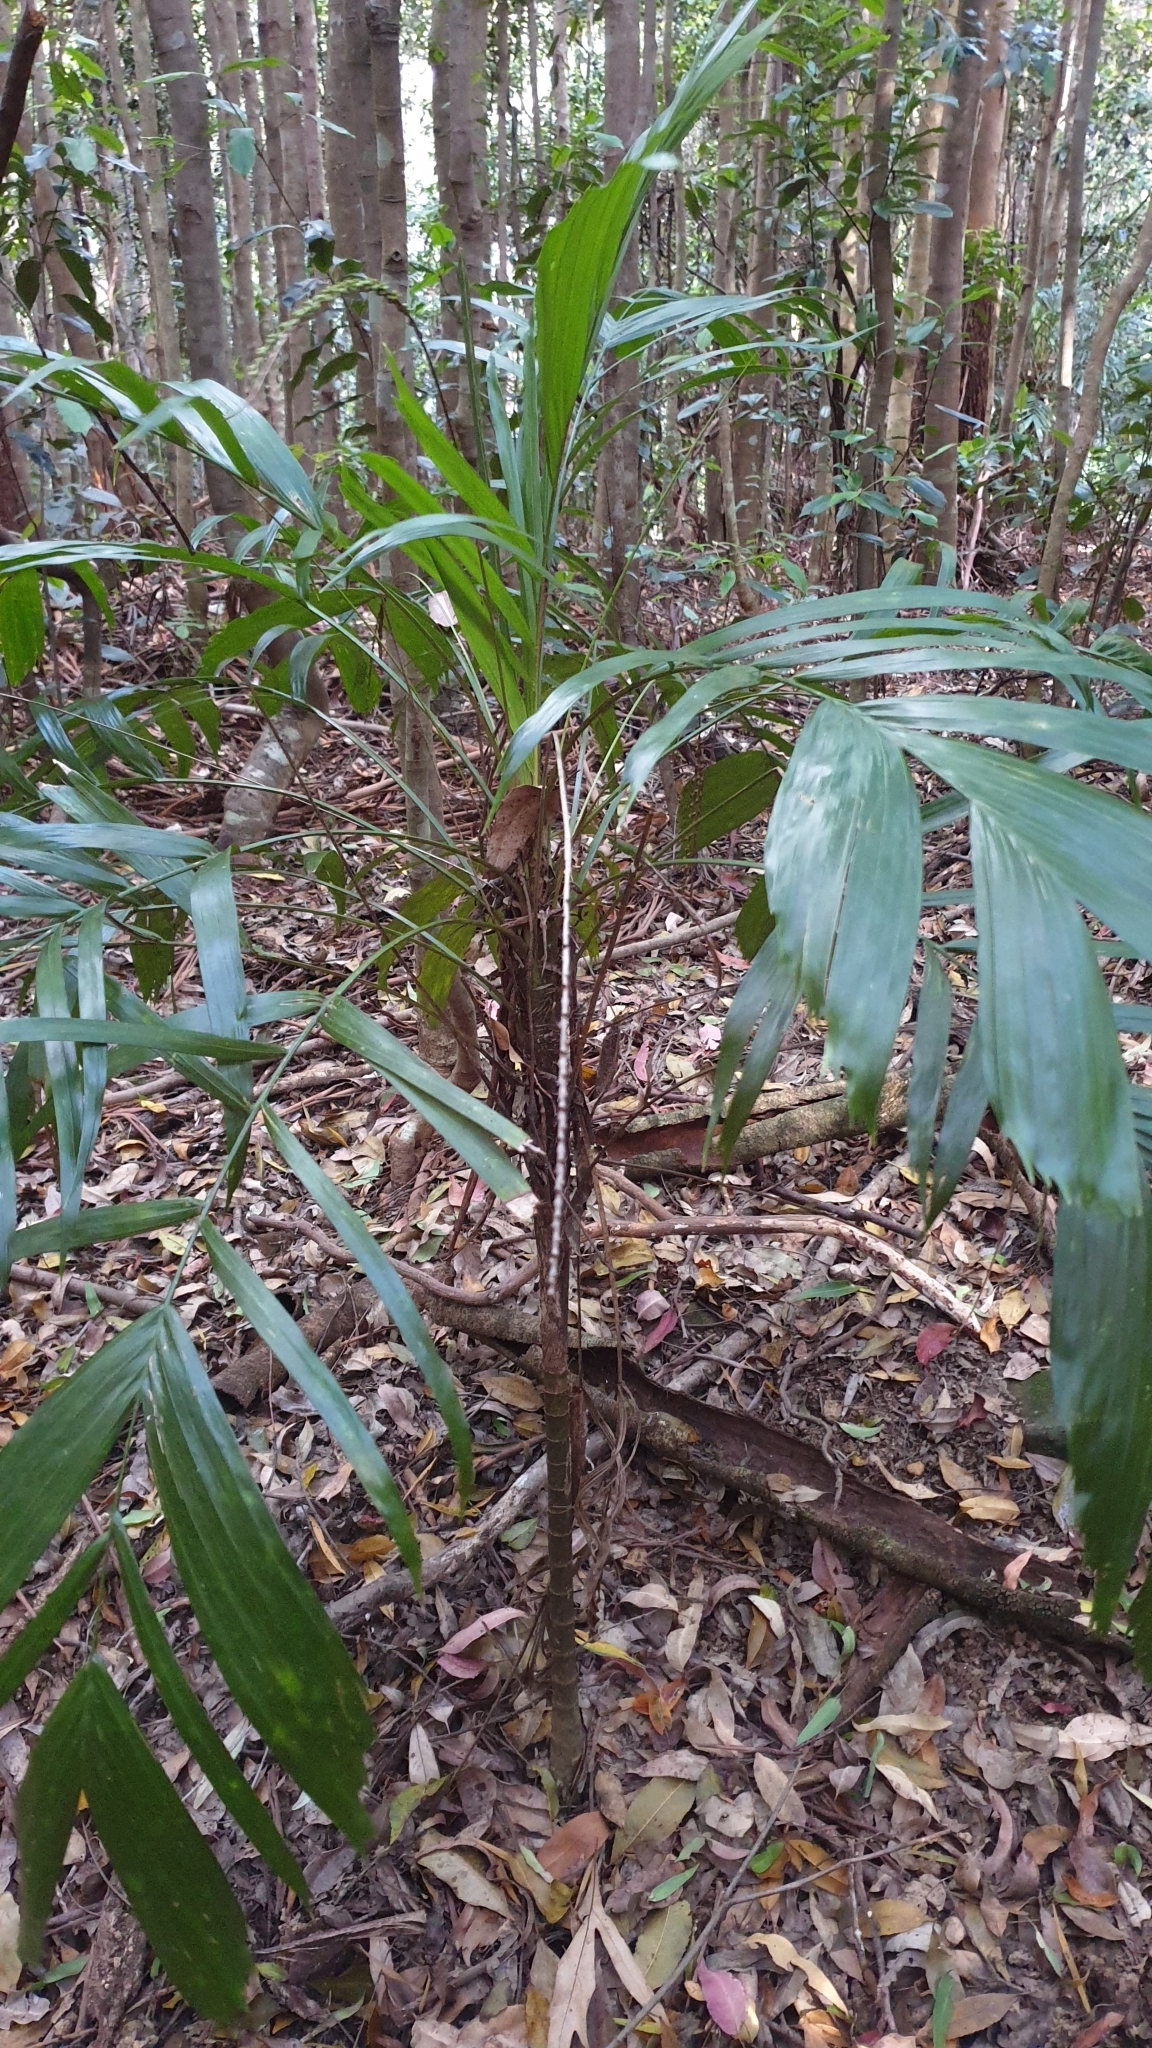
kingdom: Plantae
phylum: Tracheophyta
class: Liliopsida
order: Arecales
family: Arecaceae
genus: Linospadix
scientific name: Linospadix monostachyus
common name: Walking-stick palm
